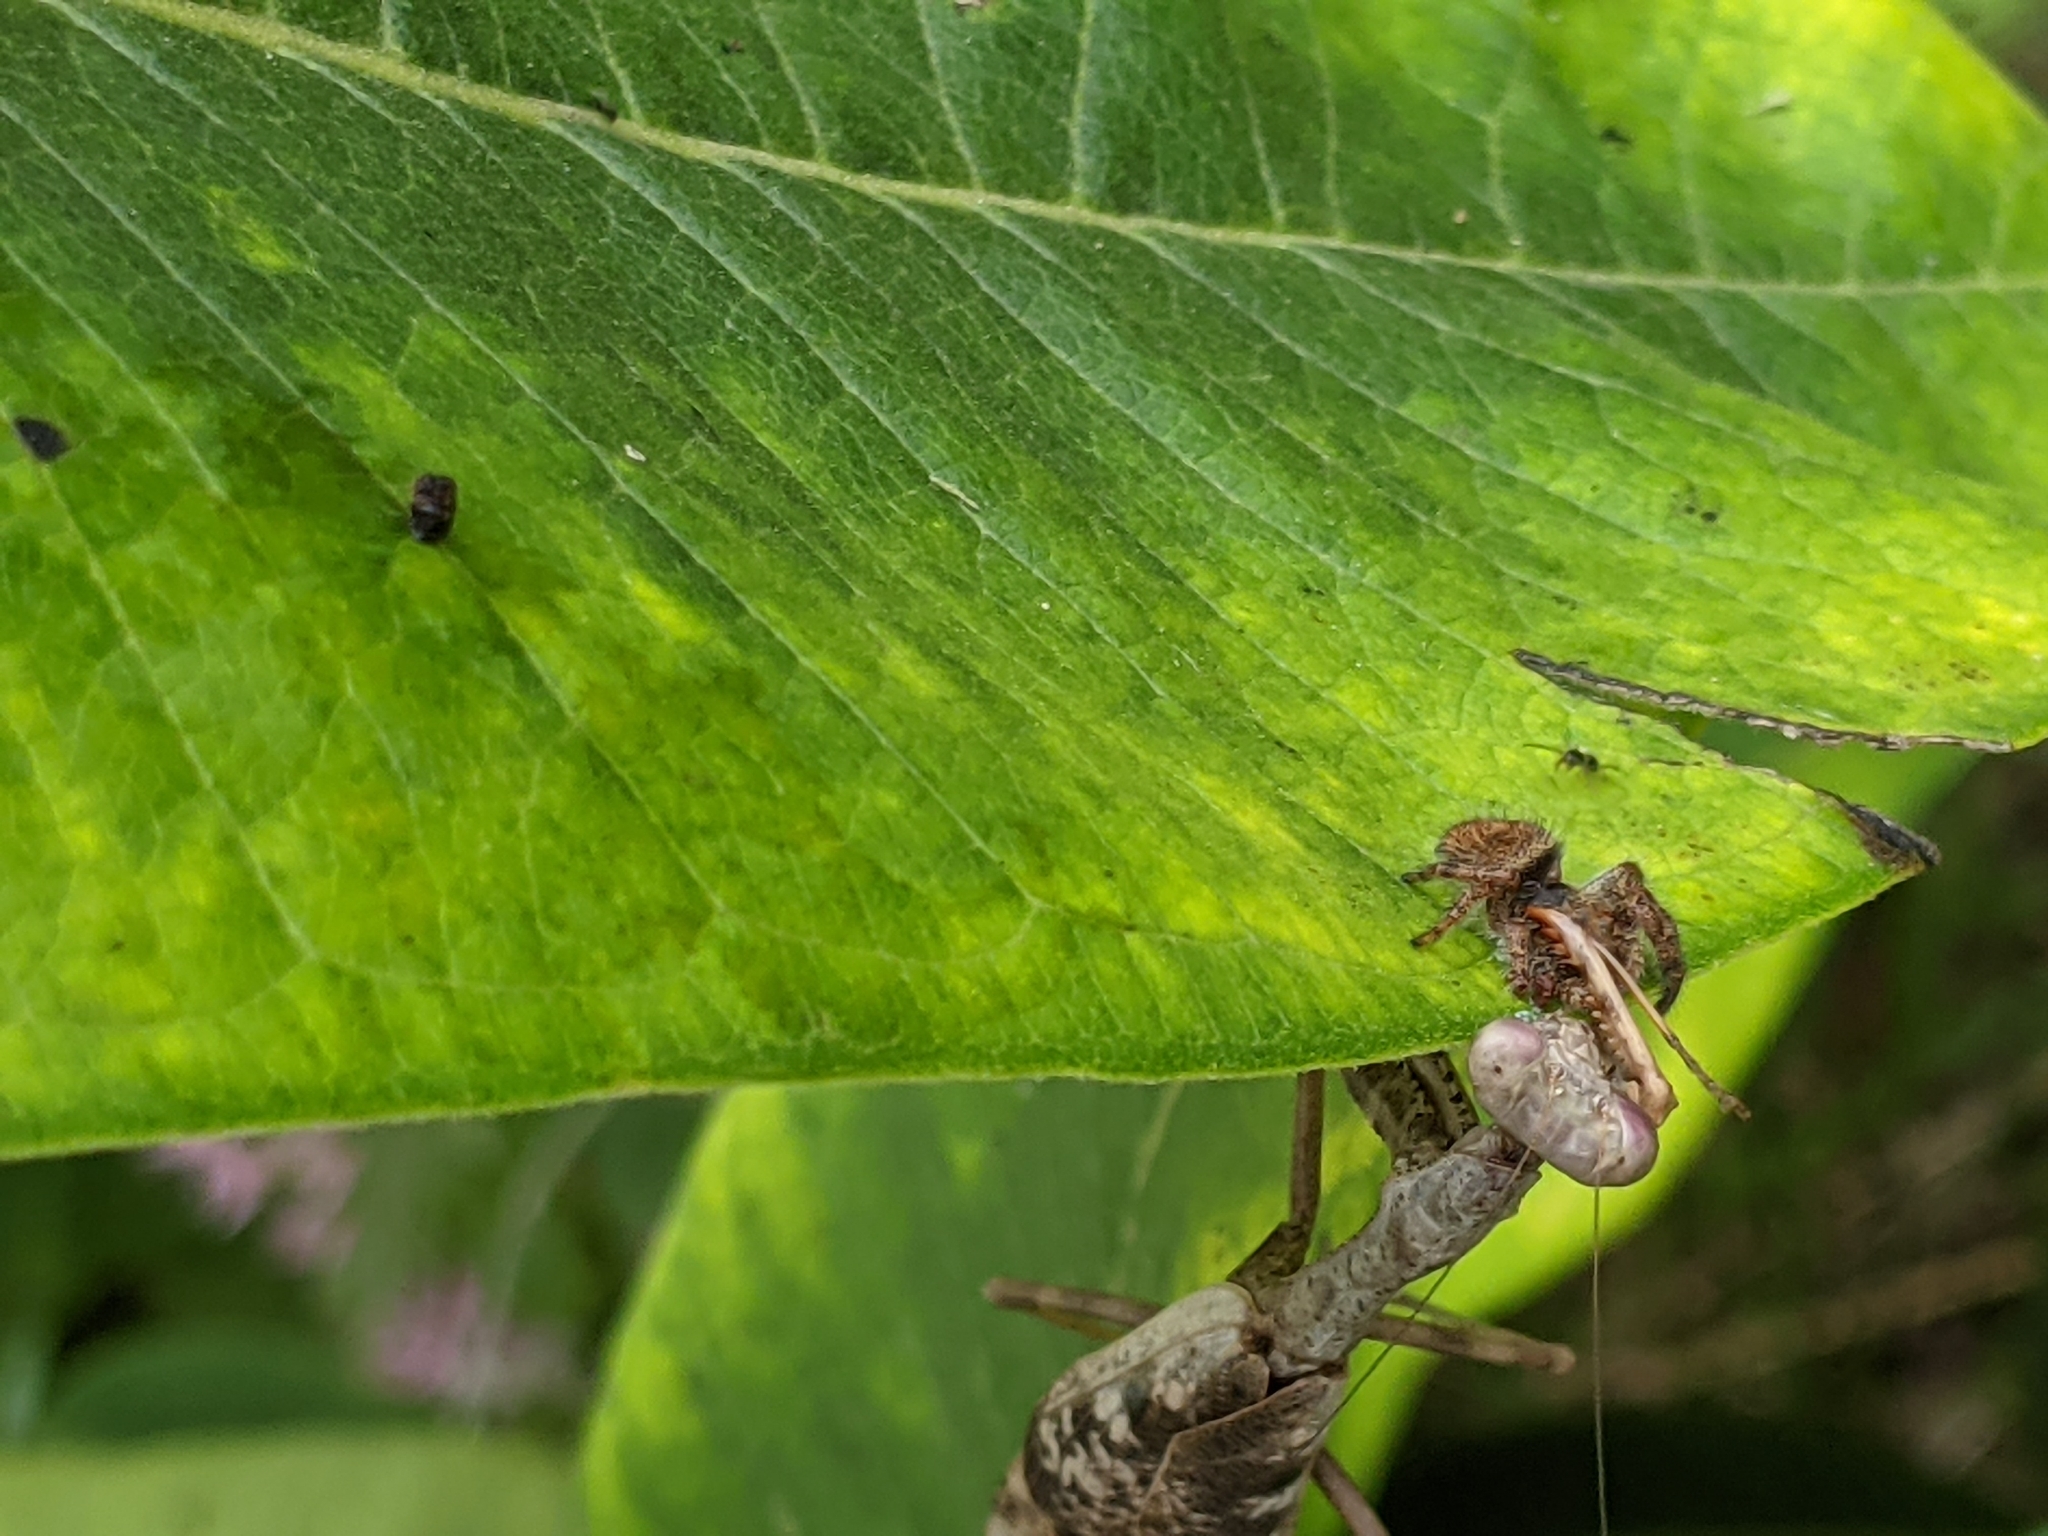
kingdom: Animalia
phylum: Arthropoda
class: Insecta
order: Mantodea
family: Mantidae
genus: Stagmomantis
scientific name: Stagmomantis carolina
